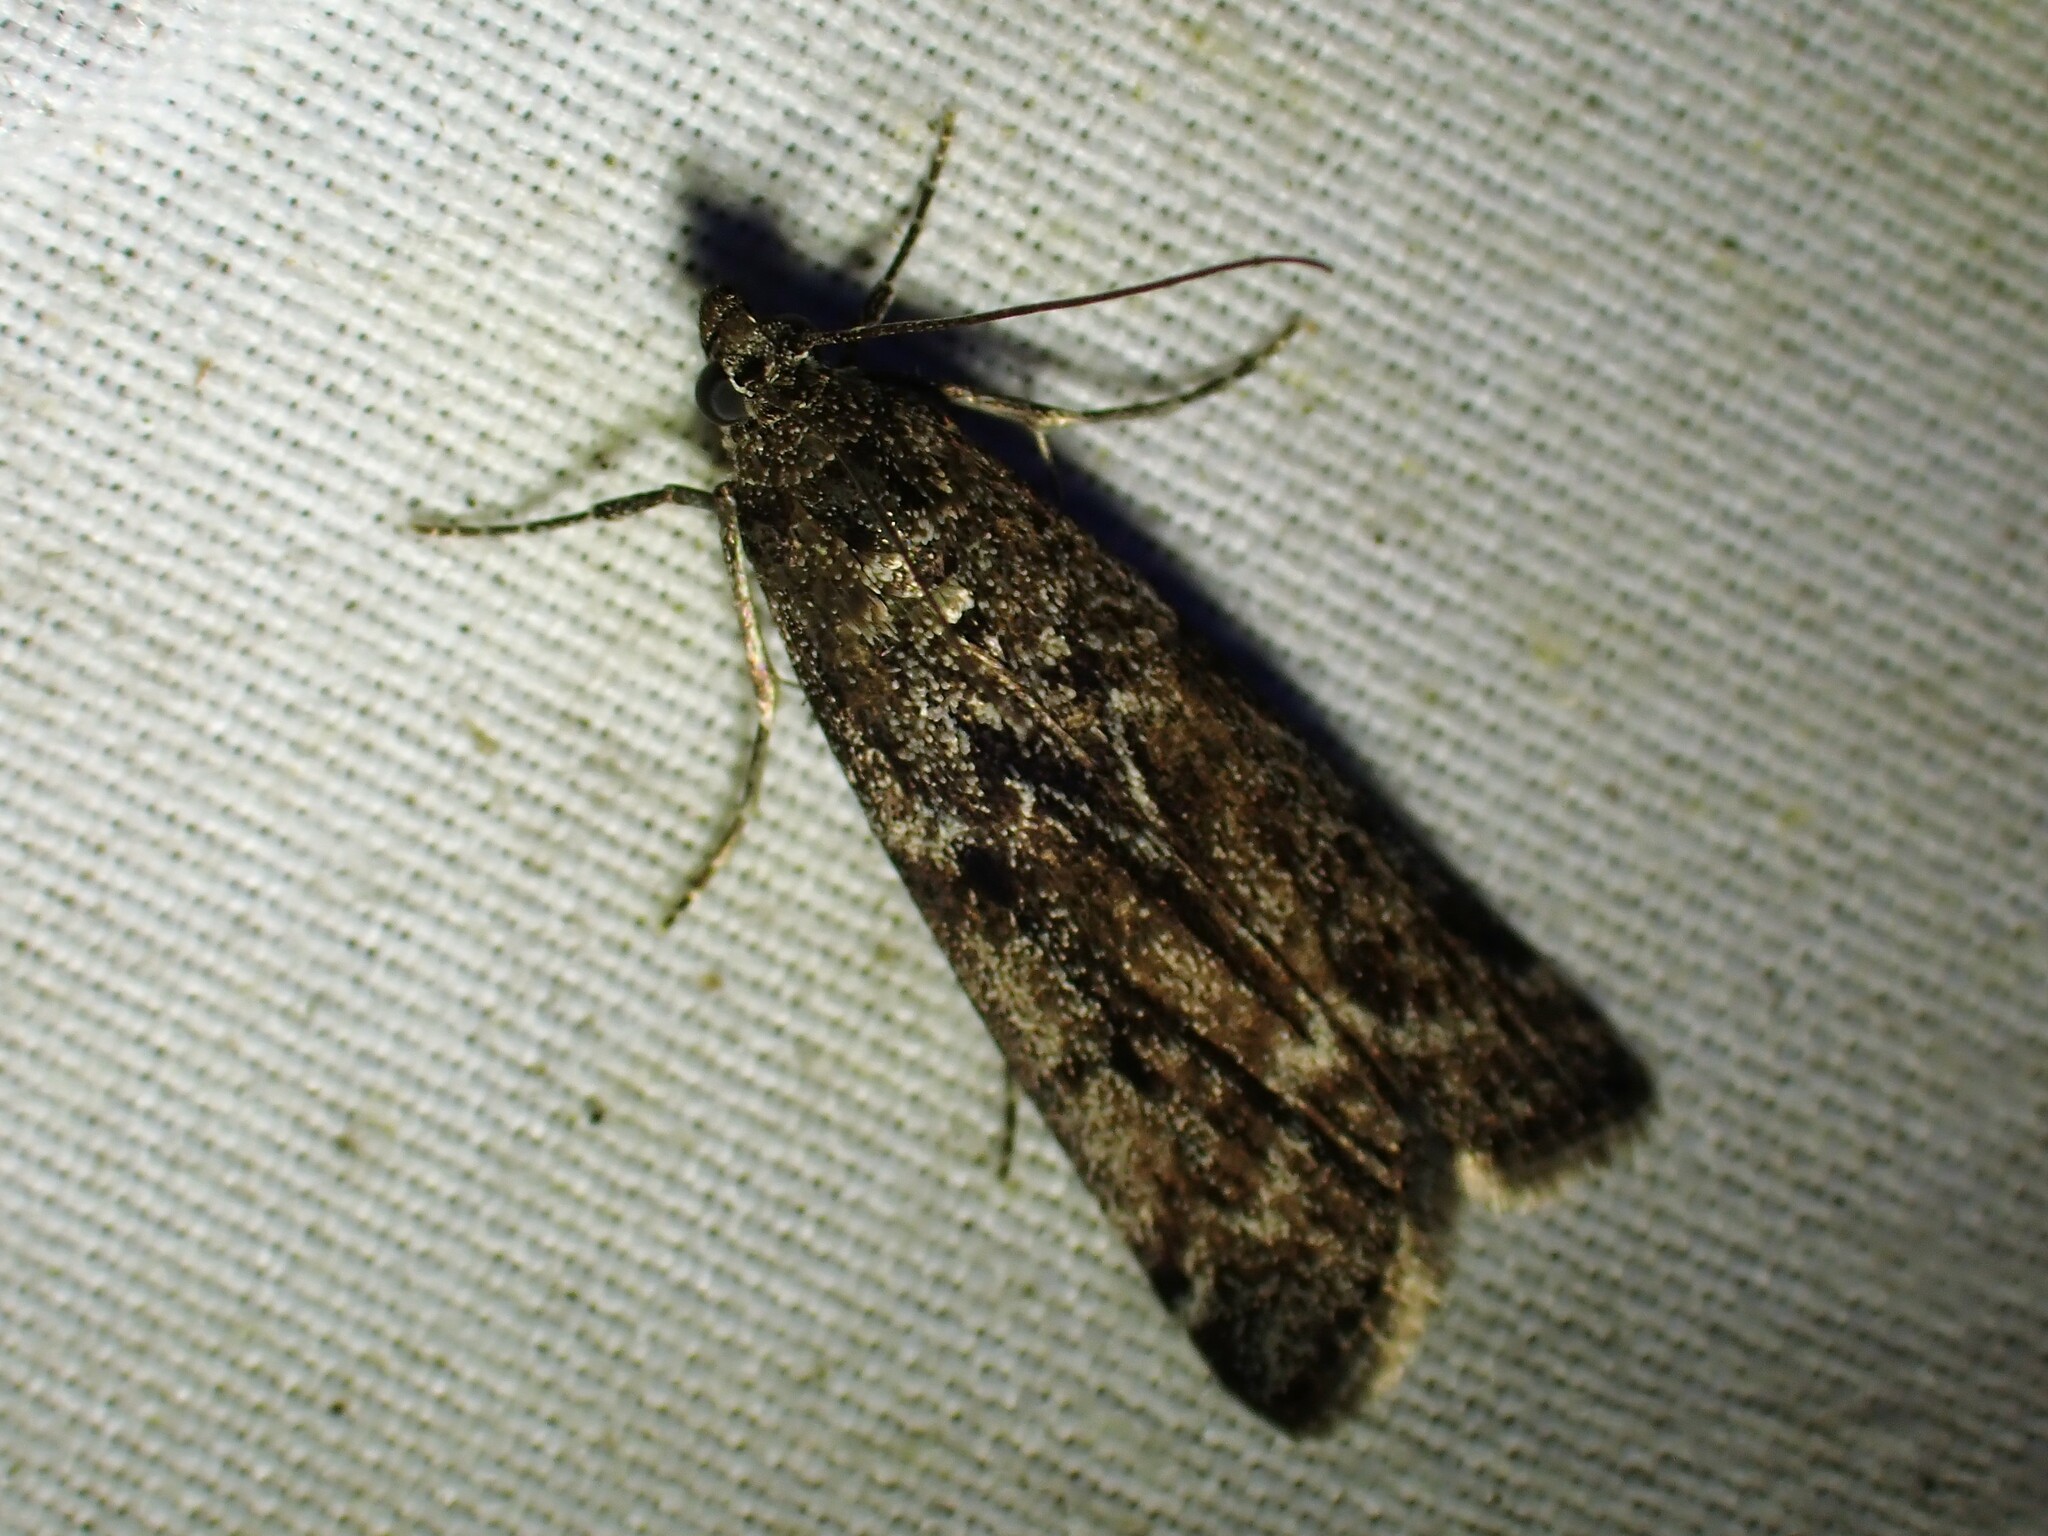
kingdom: Animalia
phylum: Arthropoda
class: Insecta
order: Lepidoptera
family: Pyralidae
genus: Pyla
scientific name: Pyla fusca
